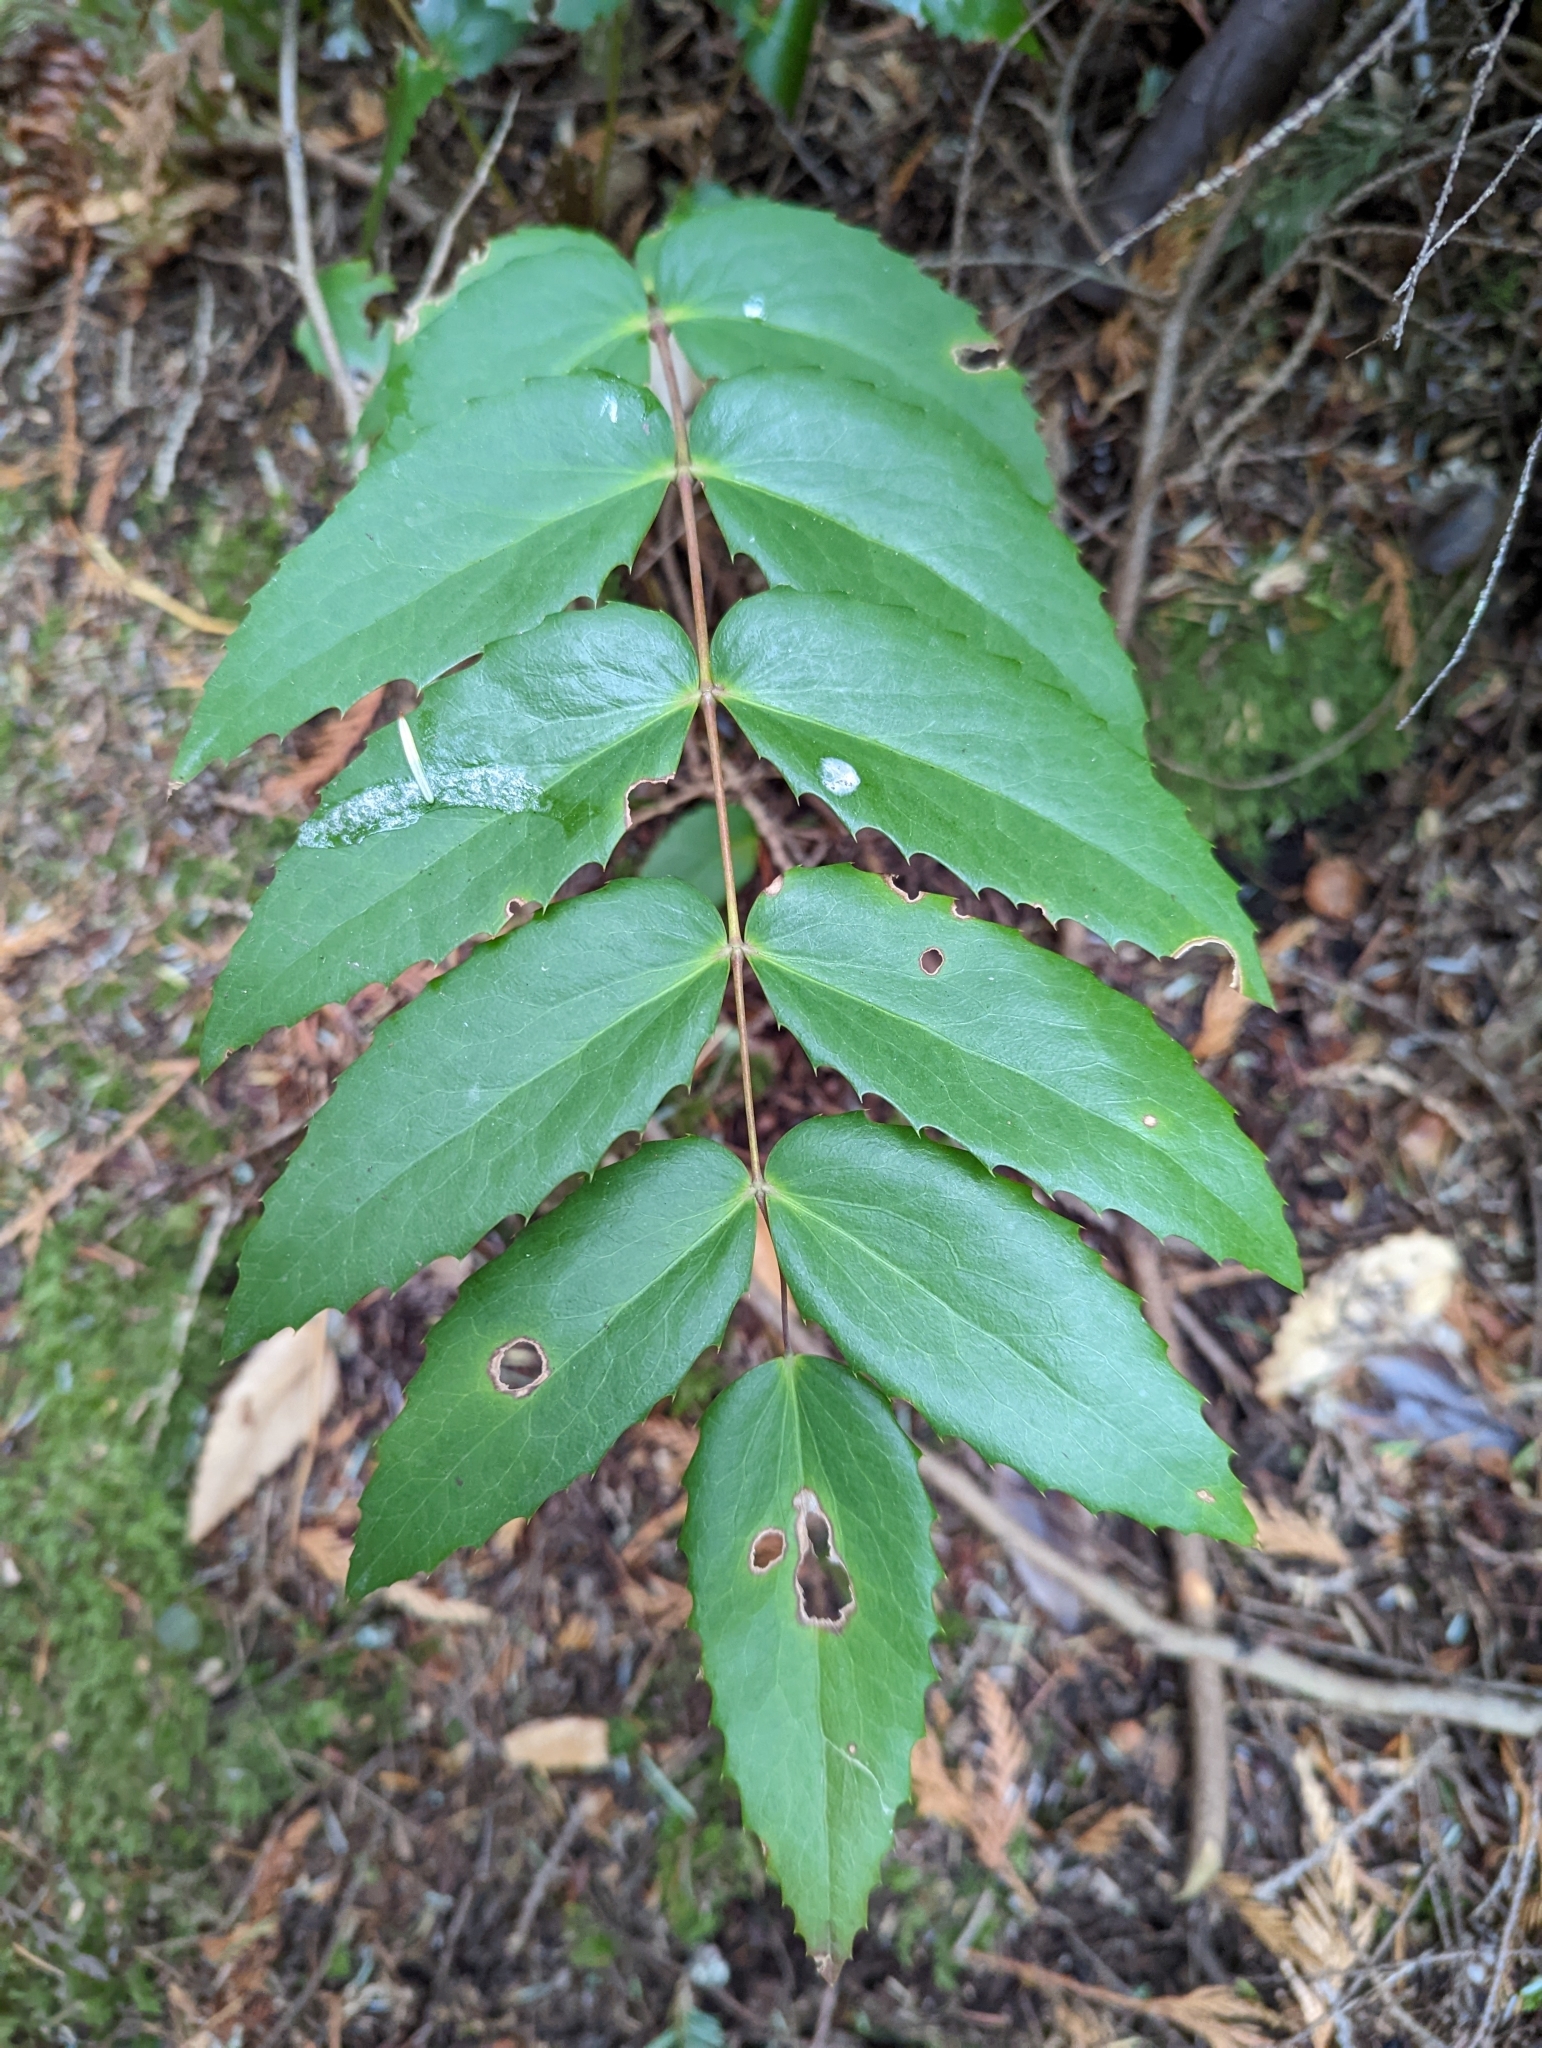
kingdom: Plantae
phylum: Tracheophyta
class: Magnoliopsida
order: Ranunculales
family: Berberidaceae
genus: Mahonia
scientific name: Mahonia nervosa
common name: Cascade oregon-grape
